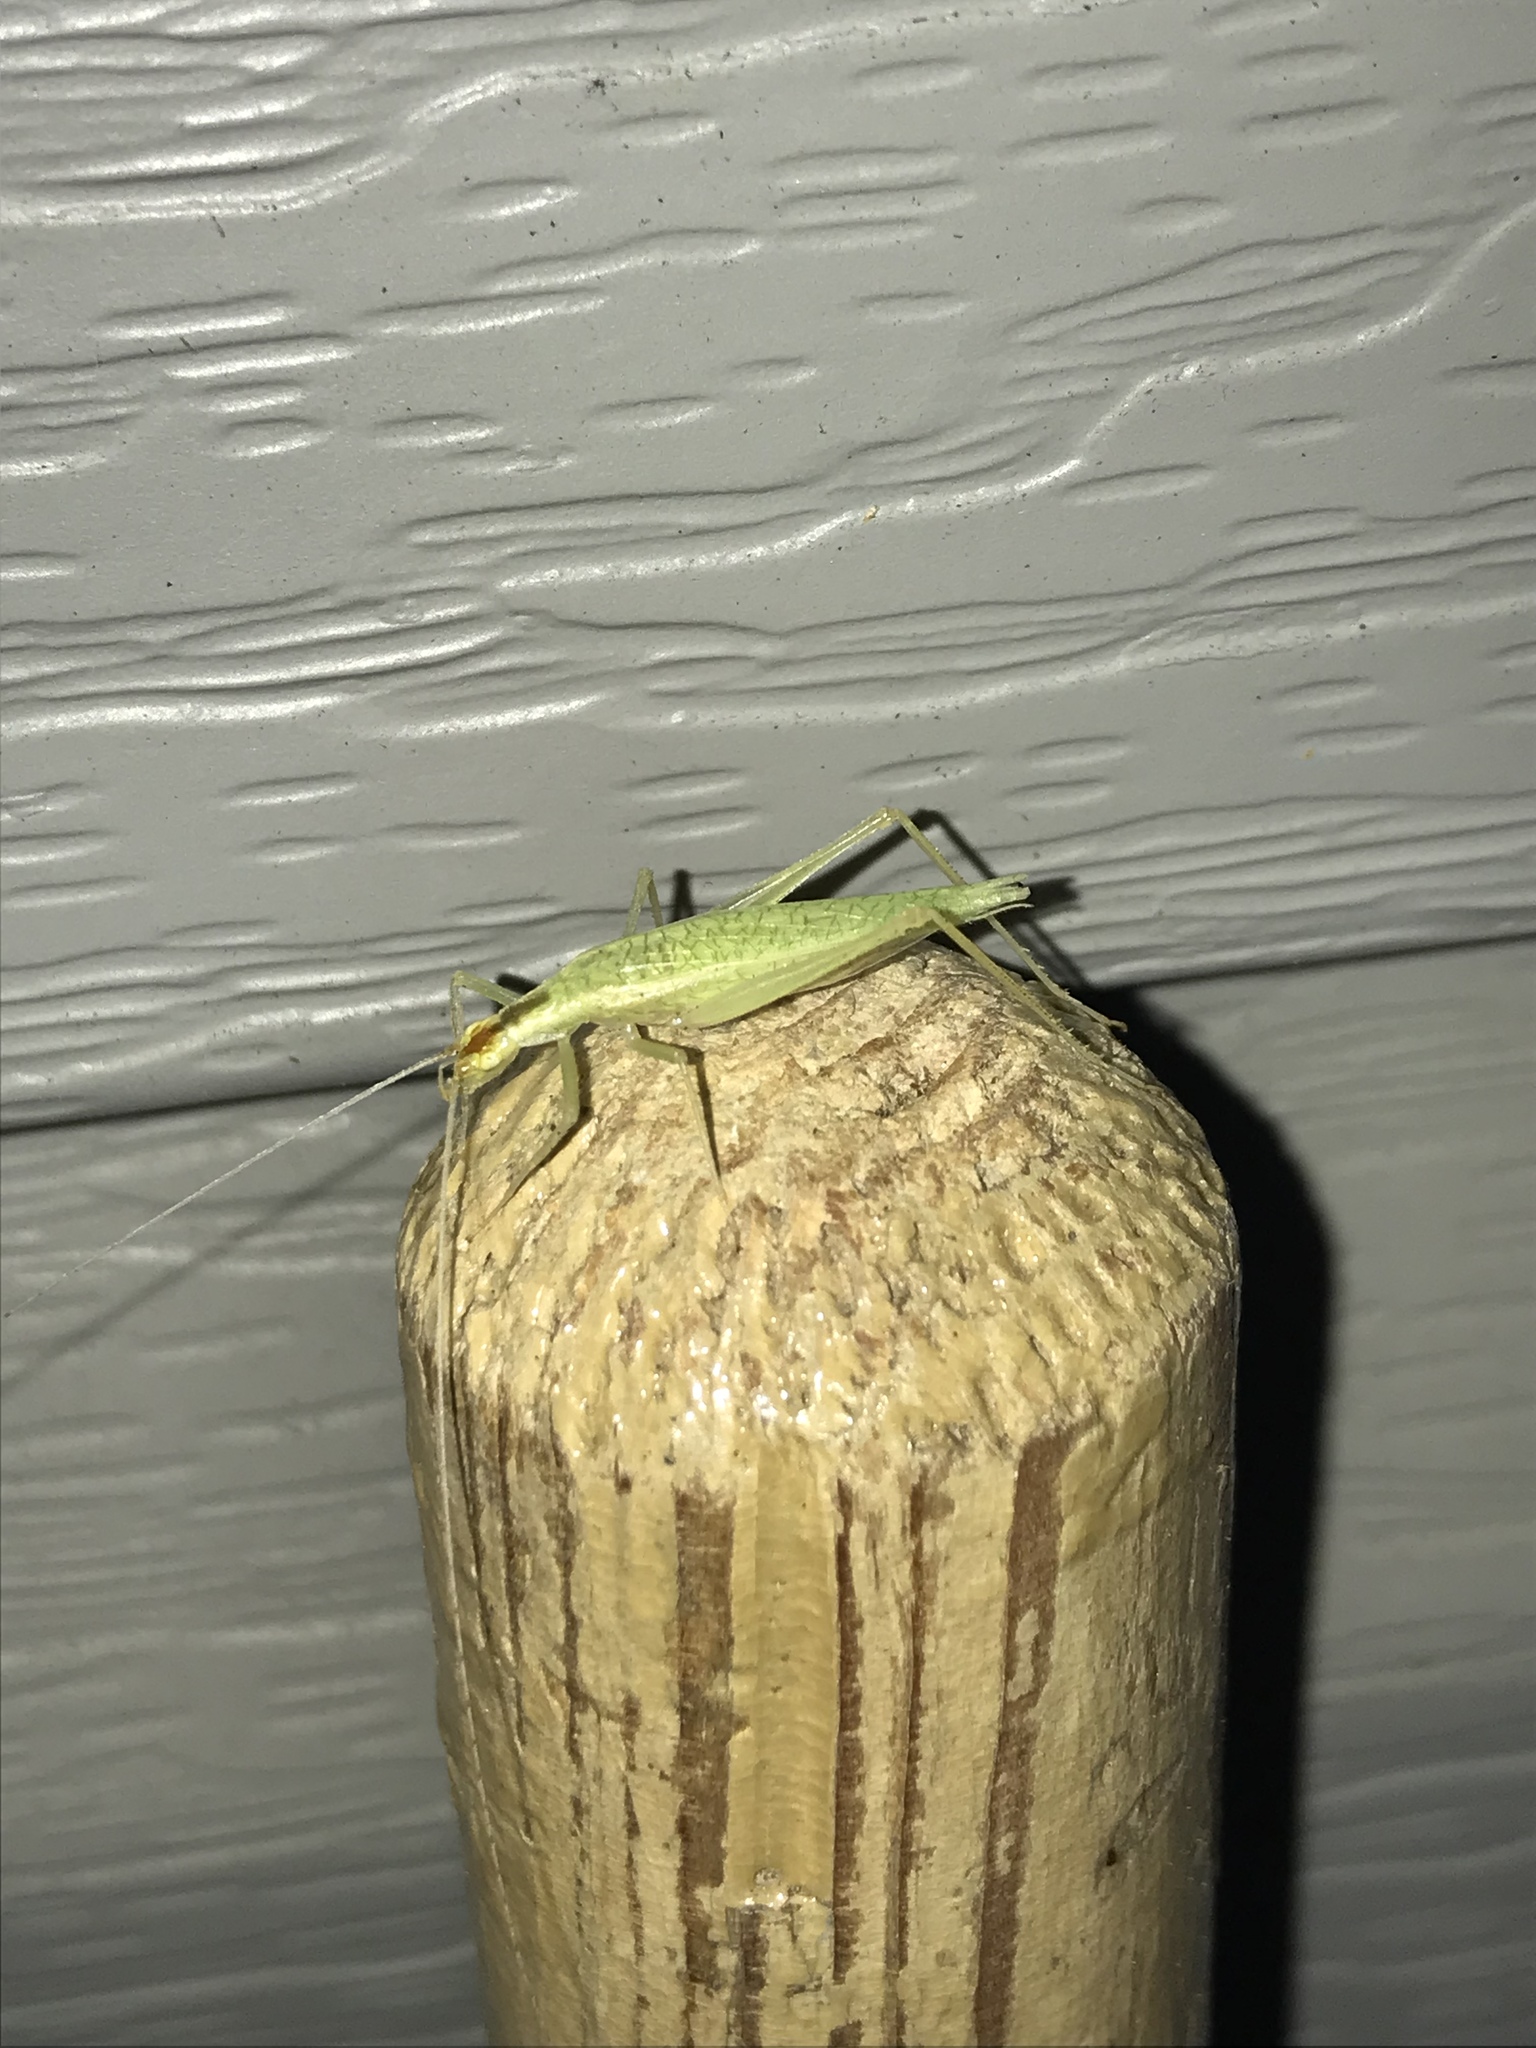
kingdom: Animalia
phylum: Arthropoda
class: Insecta
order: Orthoptera
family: Gryllidae
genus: Oecanthus
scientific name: Oecanthus niveus
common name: Narrow-winged tree cricket
